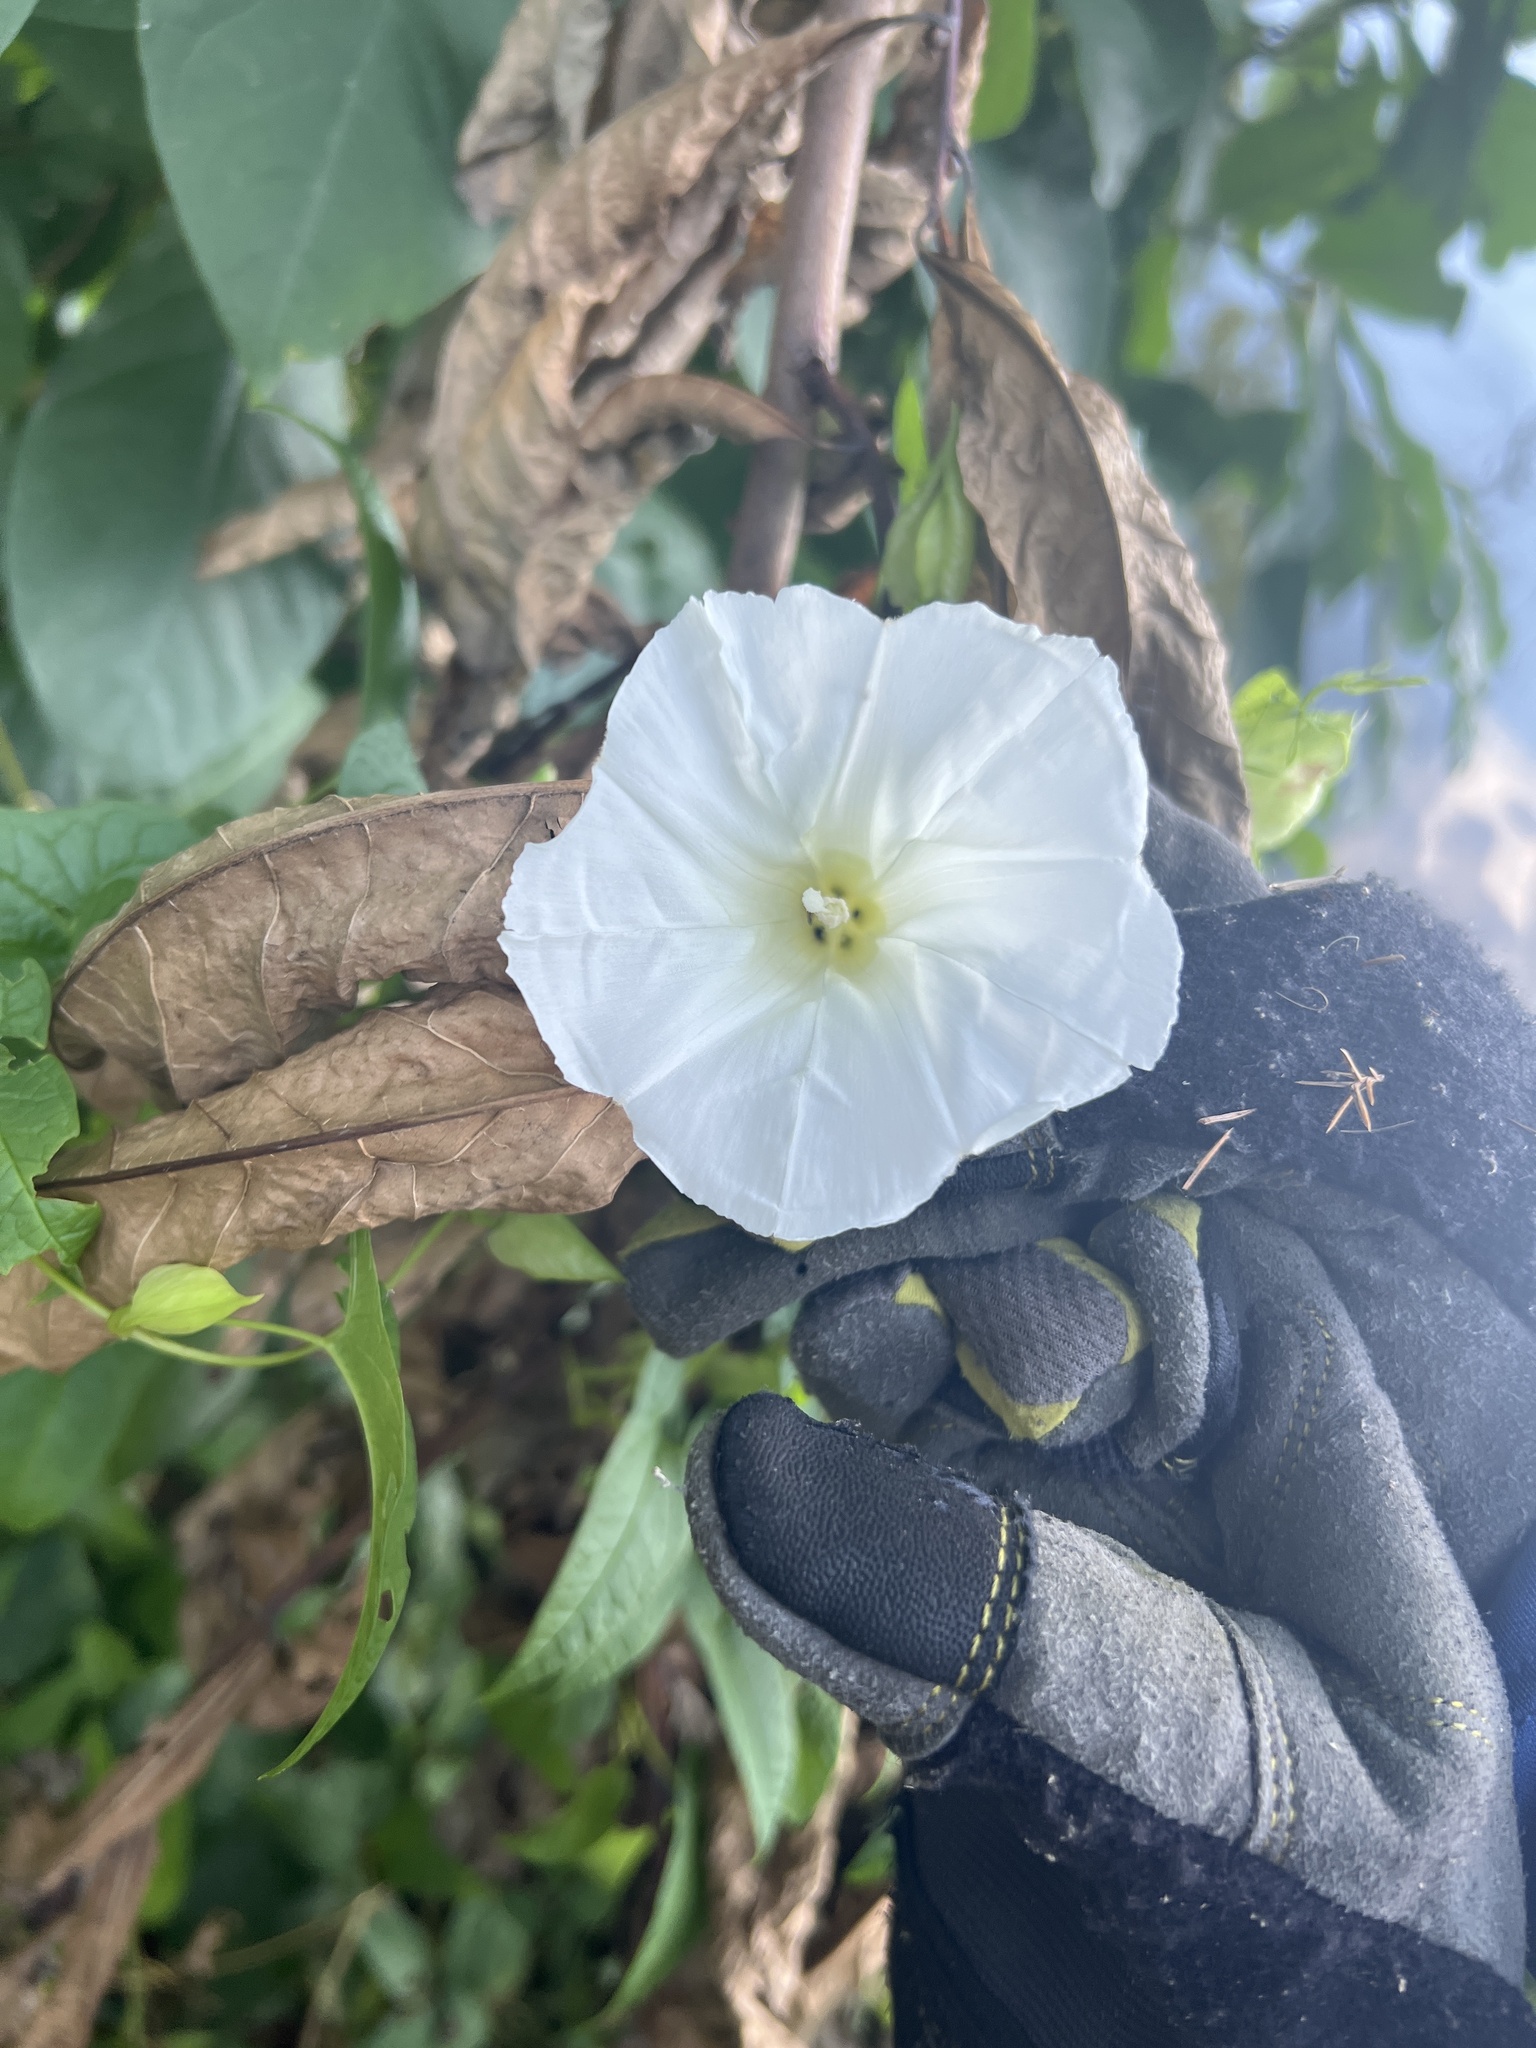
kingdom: Plantae
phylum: Tracheophyta
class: Magnoliopsida
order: Solanales
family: Convolvulaceae
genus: Calystegia
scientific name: Calystegia sepium
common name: Hedge bindweed
